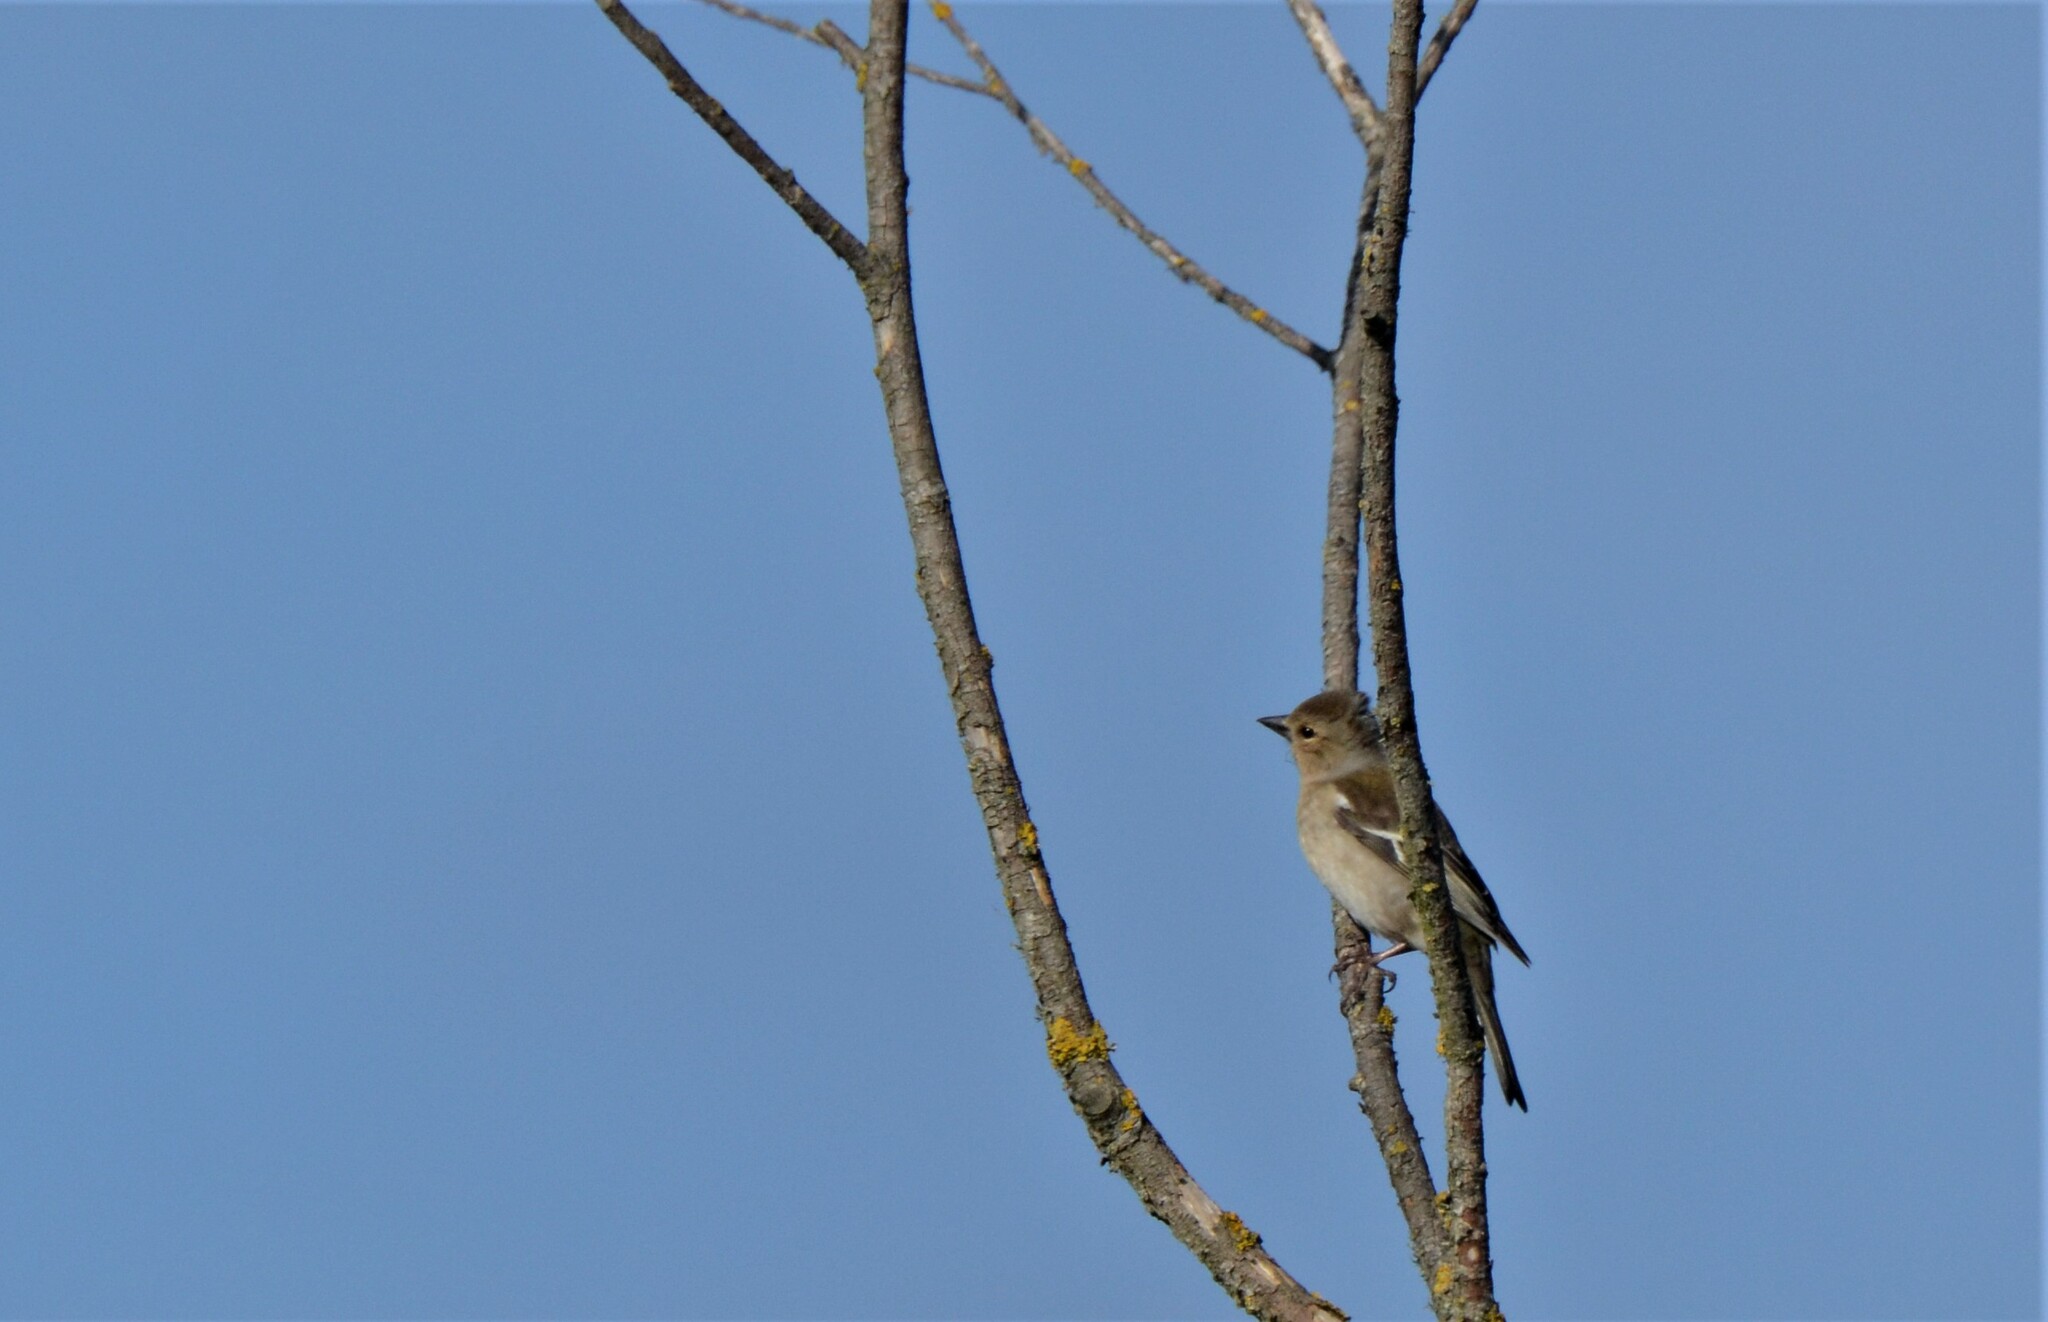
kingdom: Animalia
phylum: Chordata
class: Aves
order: Passeriformes
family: Fringillidae
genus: Fringilla
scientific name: Fringilla coelebs
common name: Common chaffinch
